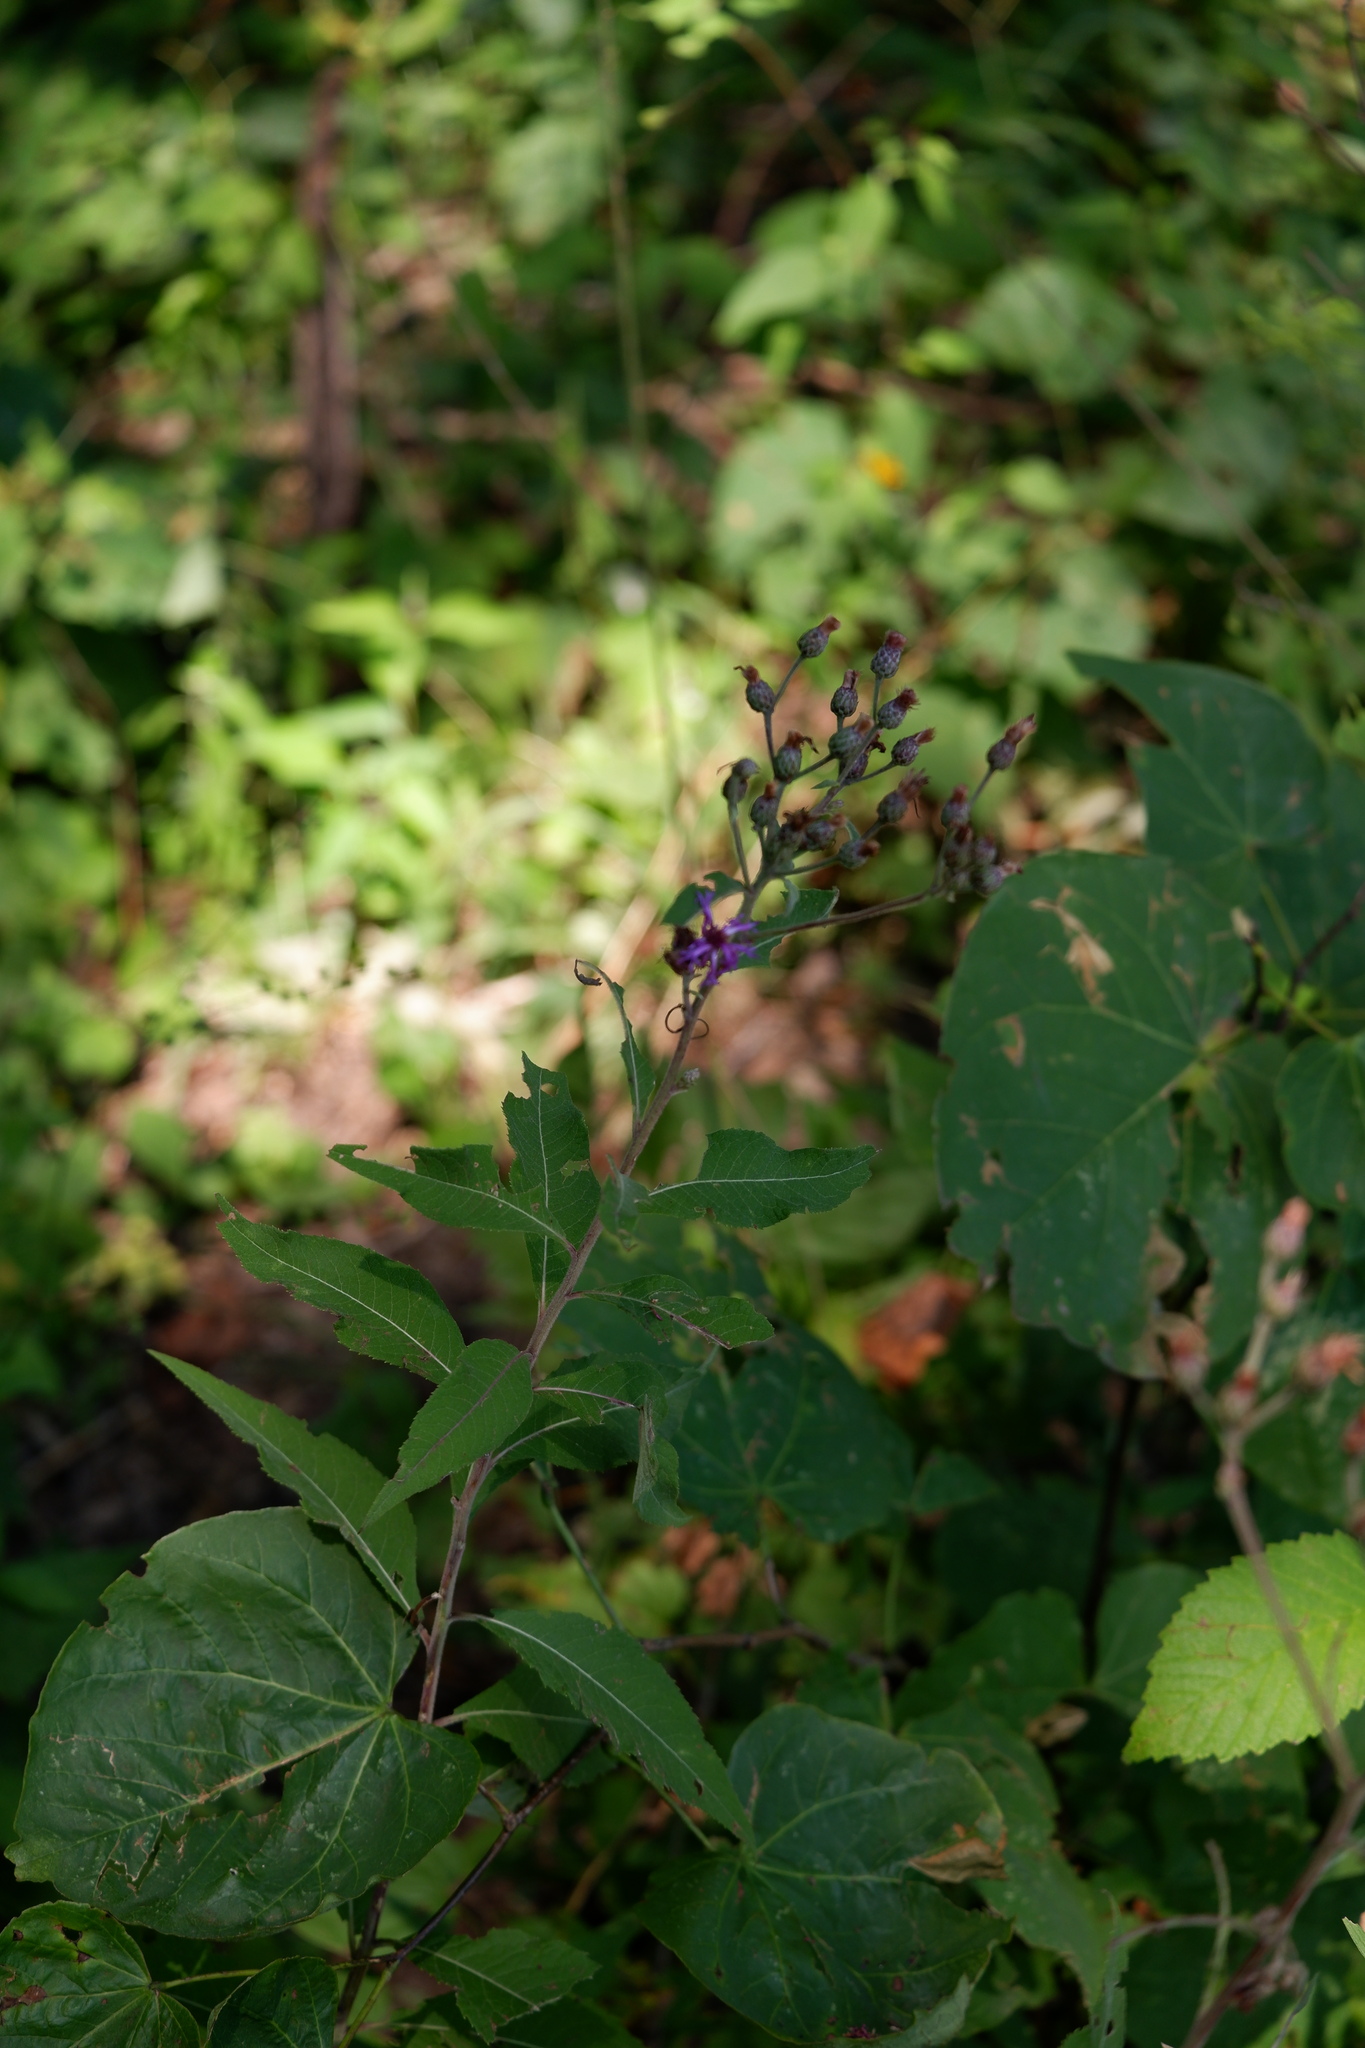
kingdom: Plantae
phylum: Tracheophyta
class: Magnoliopsida
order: Asterales
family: Asteraceae
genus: Vernonia
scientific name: Vernonia missurica
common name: Missouri ironweed
